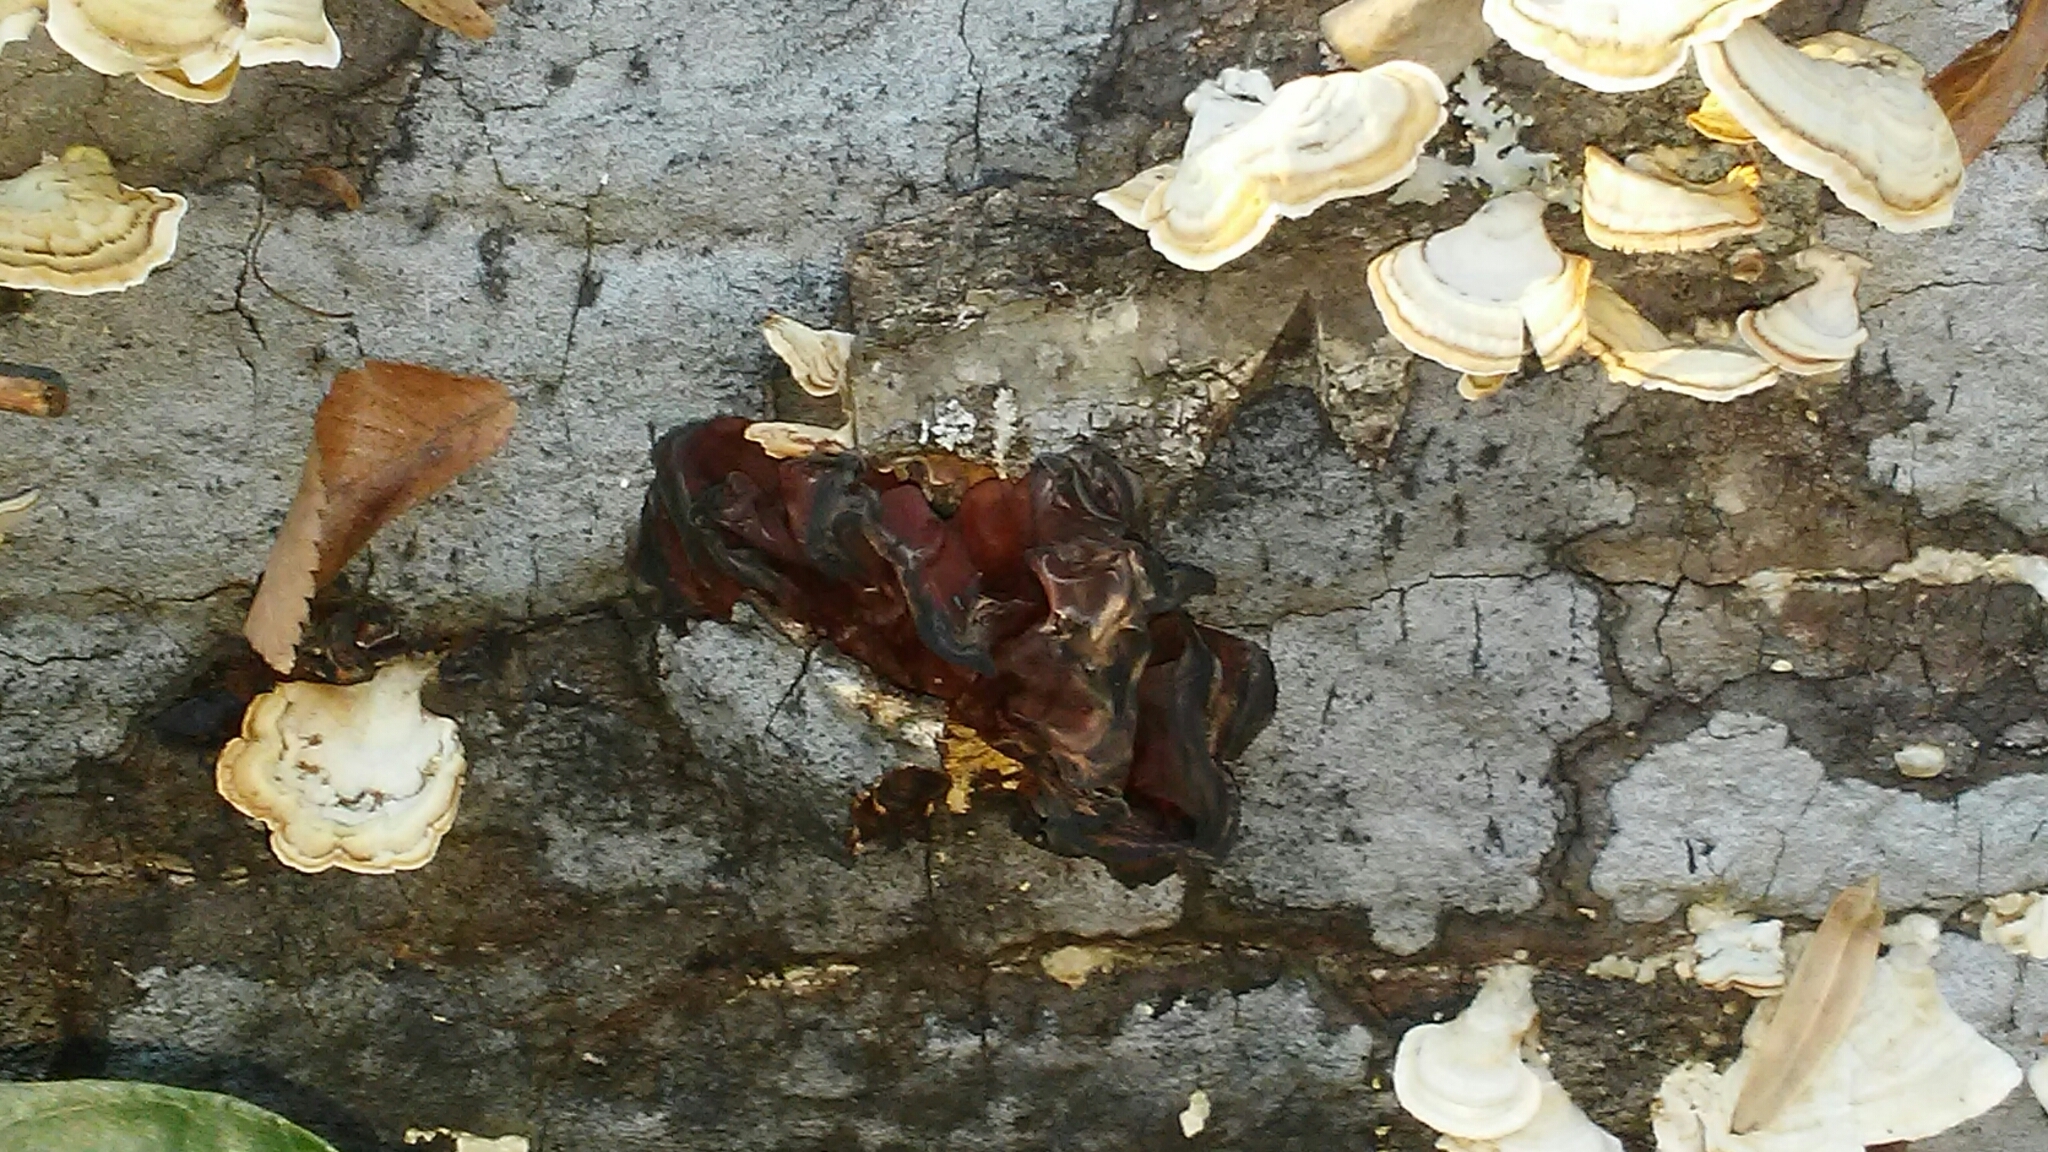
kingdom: Fungi
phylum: Basidiomycota
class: Tremellomycetes
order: Tremellales
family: Tremellaceae
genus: Phaeotremella
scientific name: Phaeotremella foliacea
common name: Leafy brain
